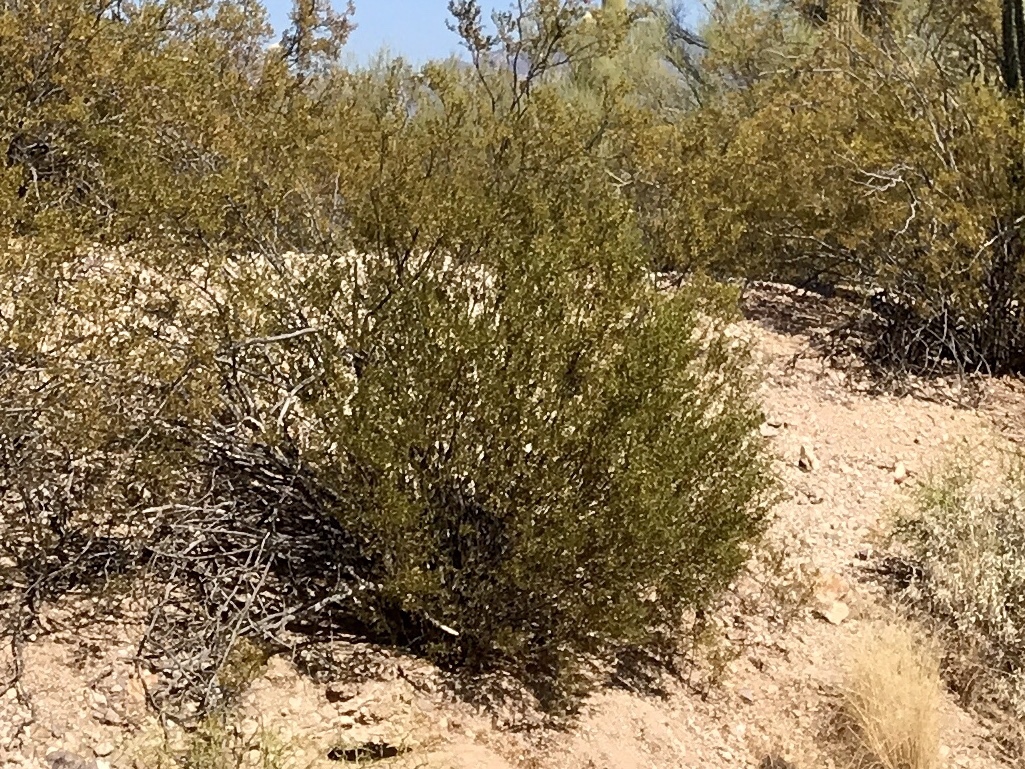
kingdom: Plantae
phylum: Tracheophyta
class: Magnoliopsida
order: Zygophyllales
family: Zygophyllaceae
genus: Larrea
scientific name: Larrea tridentata
